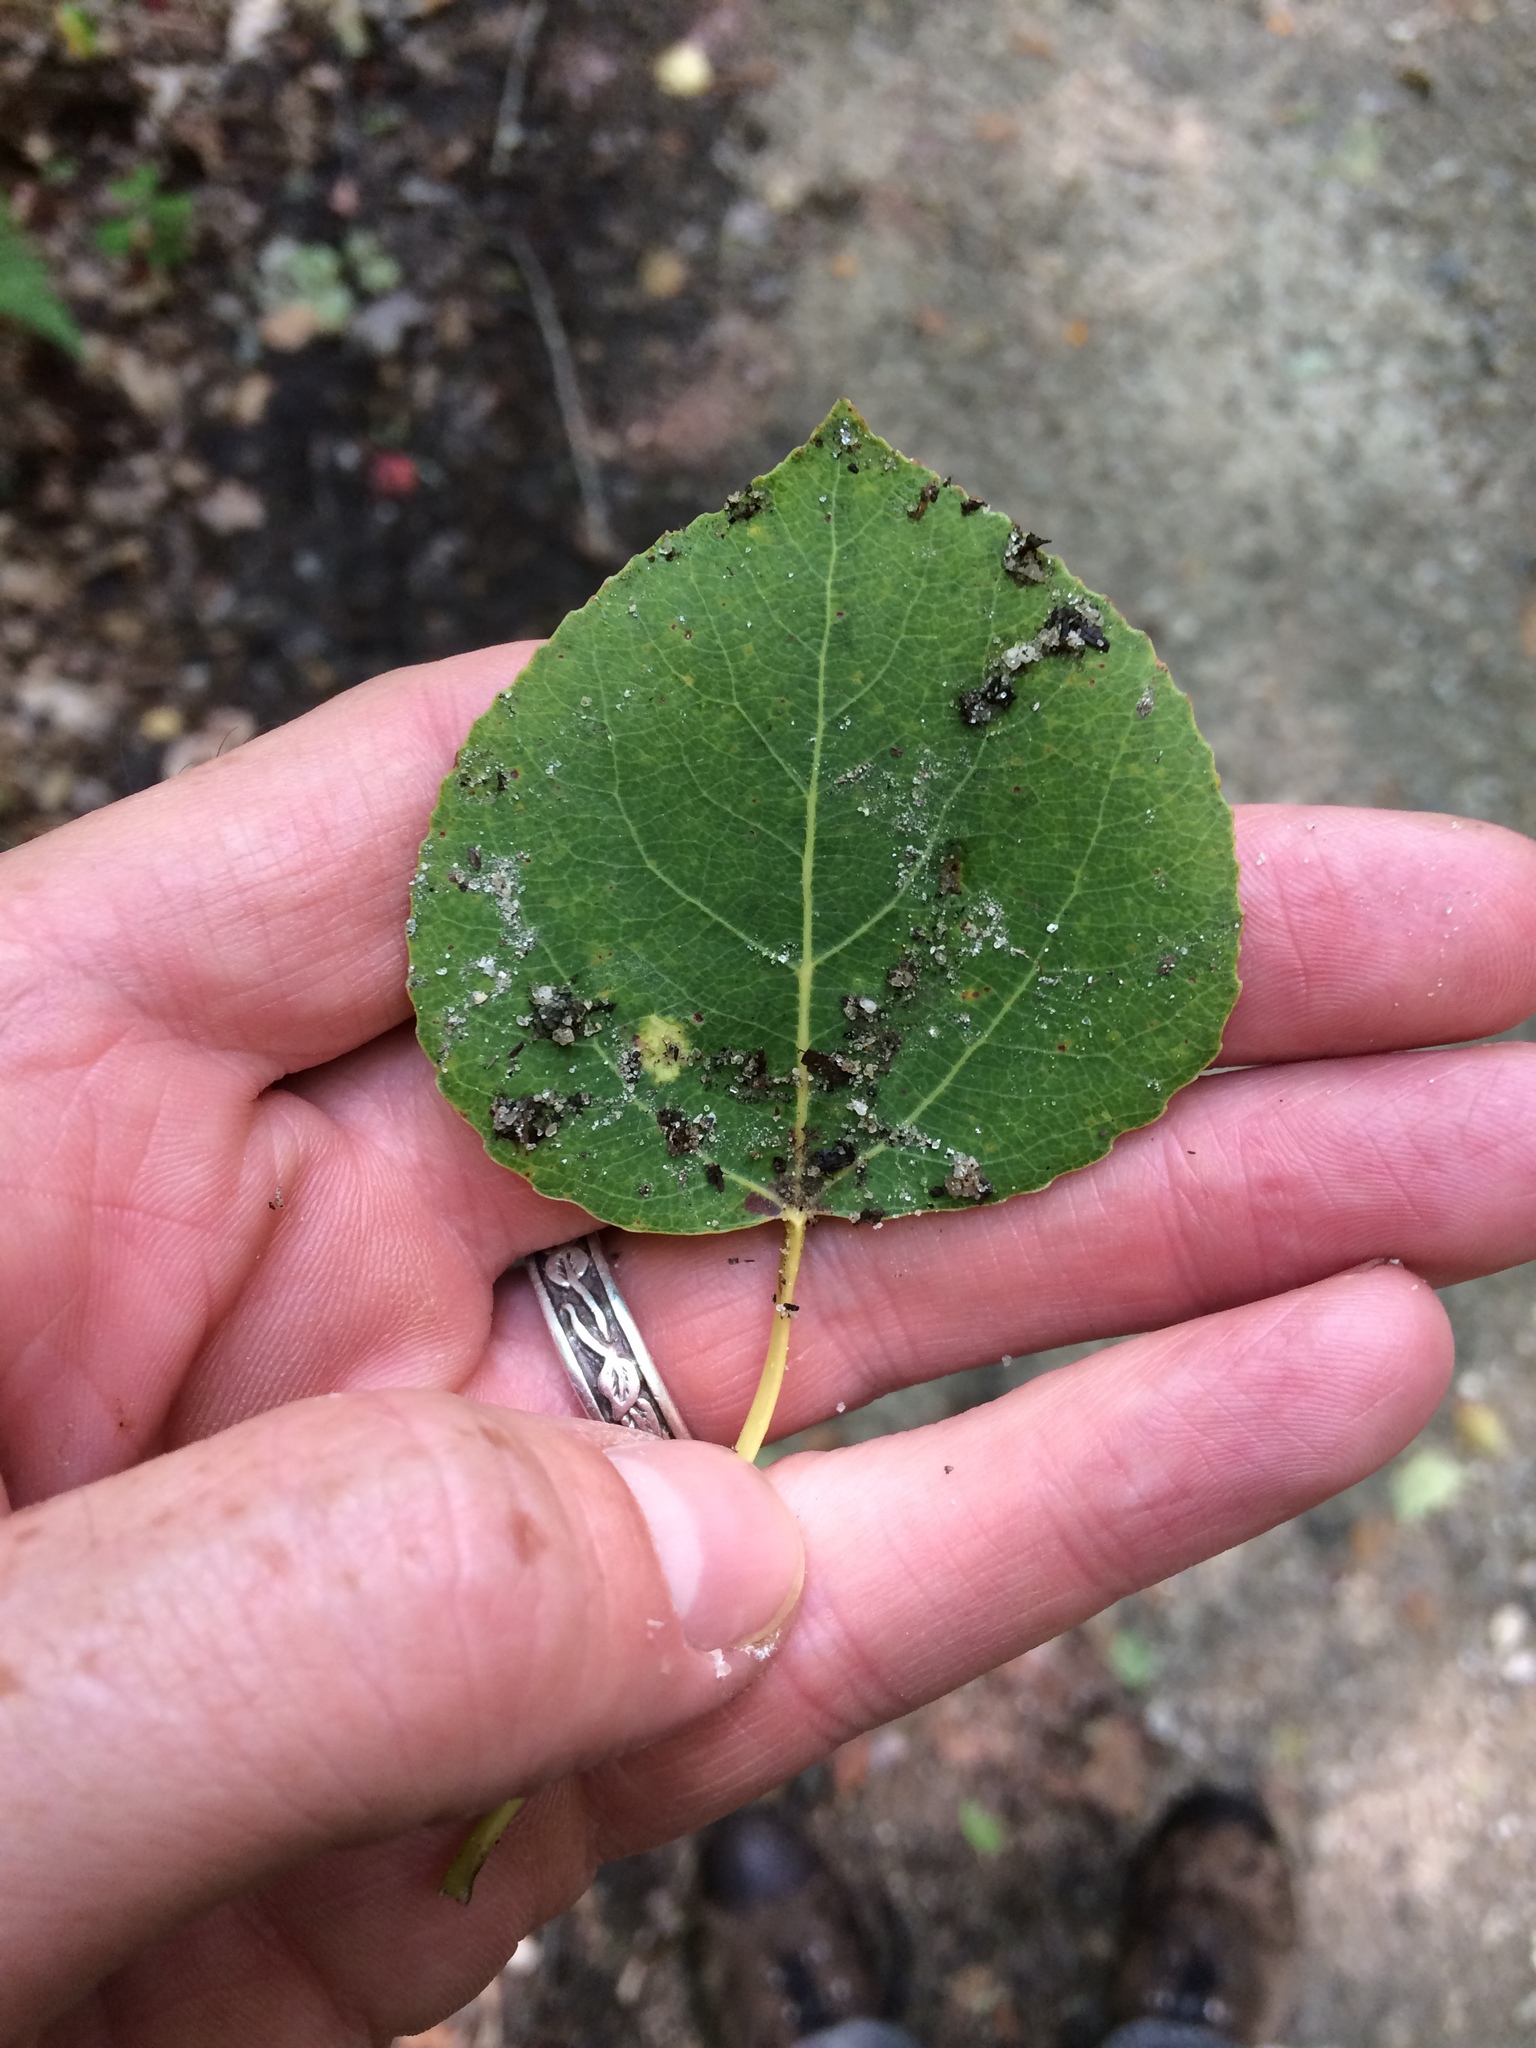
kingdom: Plantae
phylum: Tracheophyta
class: Magnoliopsida
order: Malpighiales
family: Salicaceae
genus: Populus
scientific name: Populus tremuloides
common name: Quaking aspen
